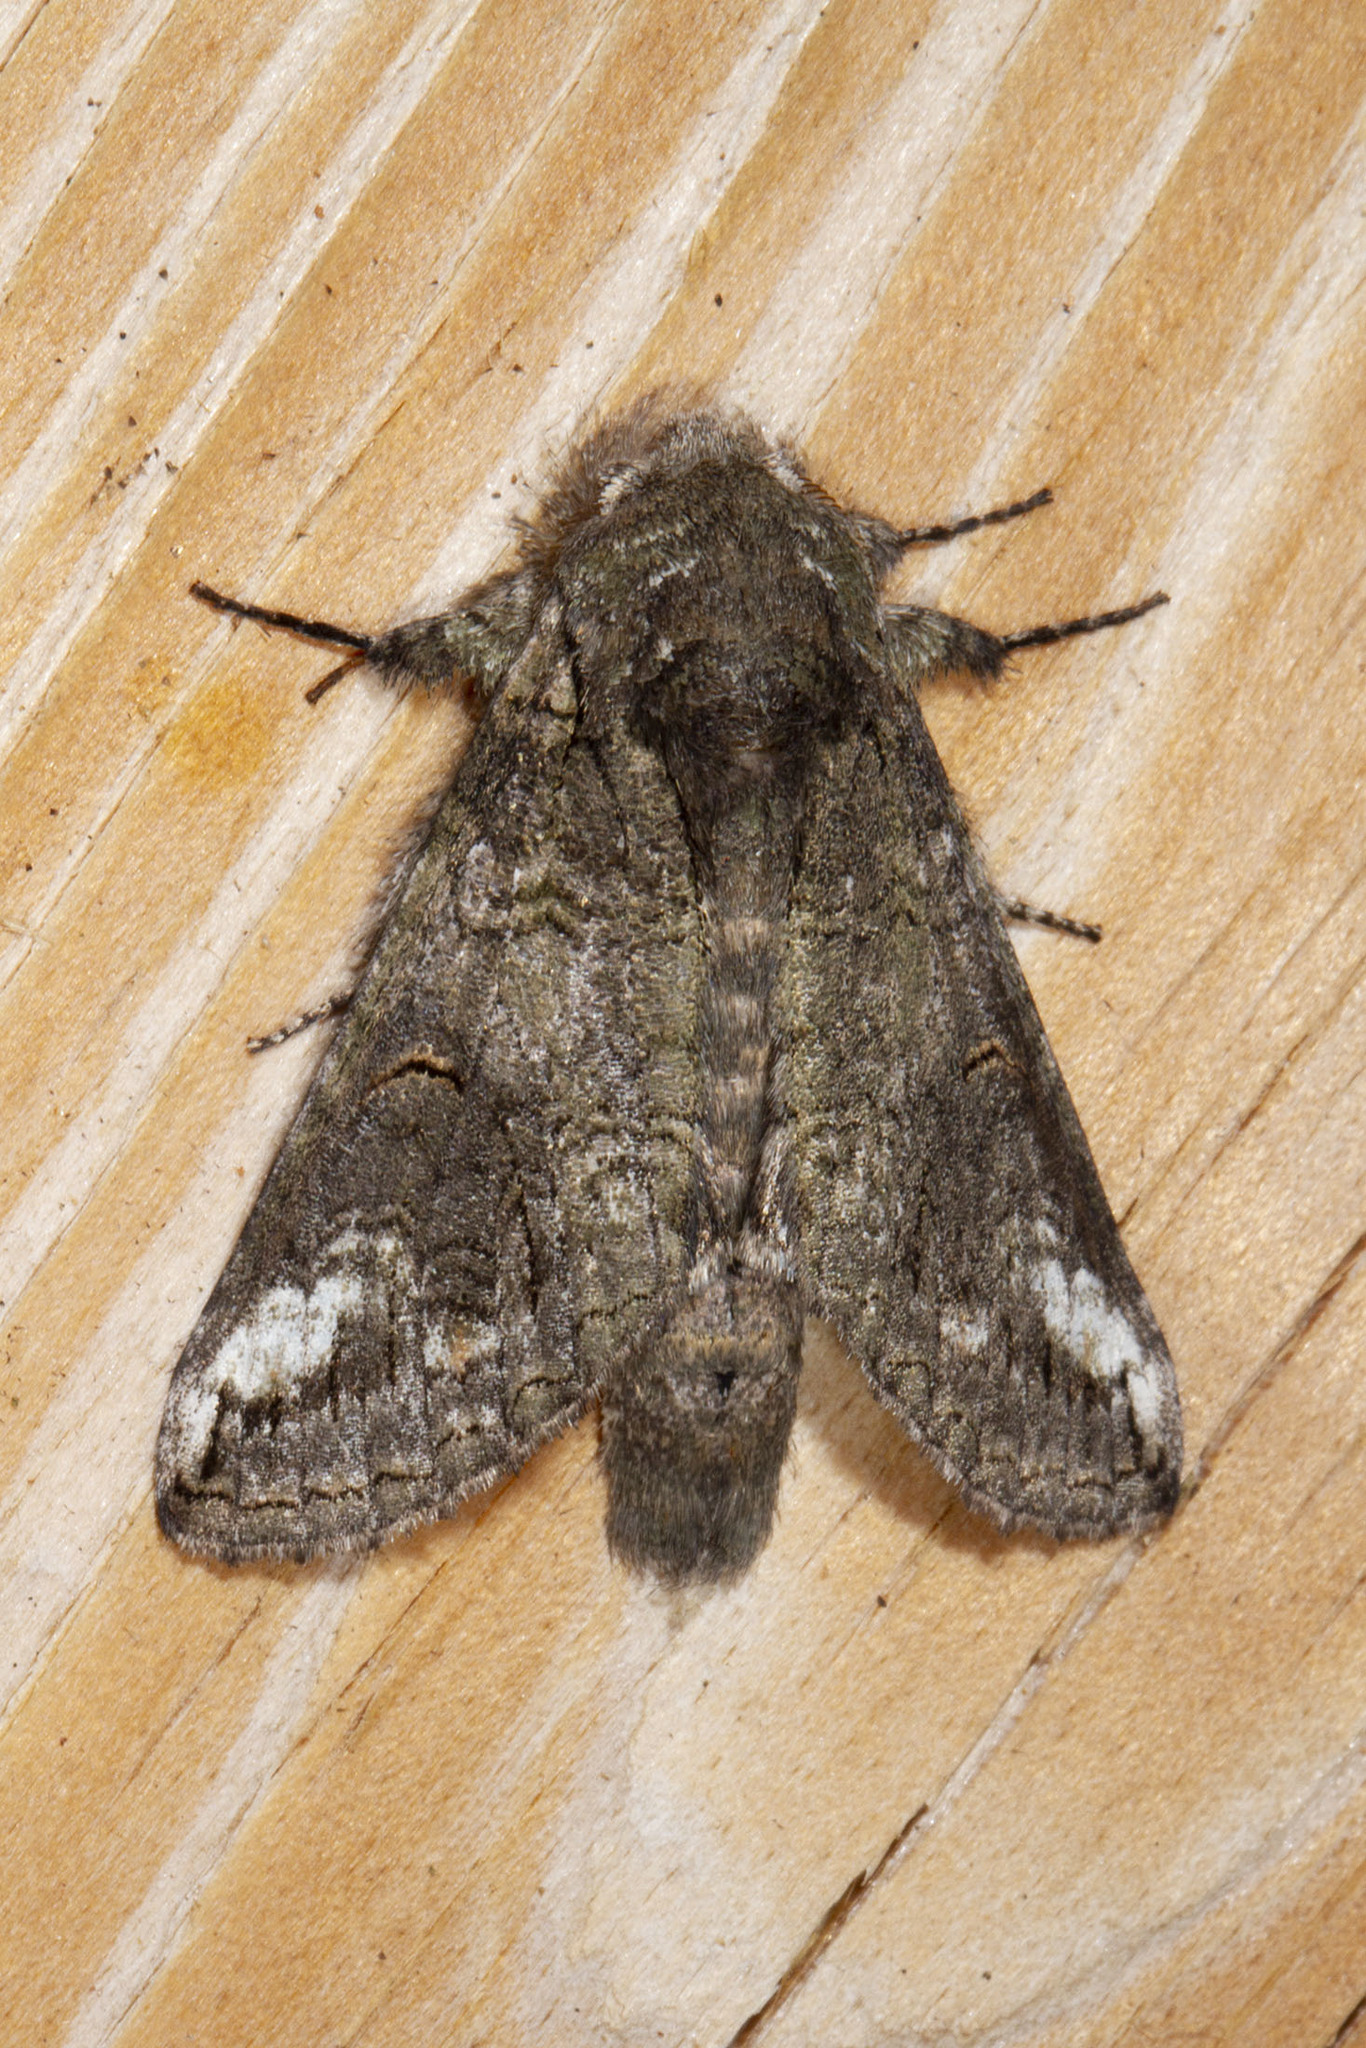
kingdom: Animalia
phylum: Arthropoda
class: Insecta
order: Lepidoptera
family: Notodontidae
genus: Heterocampa
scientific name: Heterocampa obliqua
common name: Oblique heterocampa
